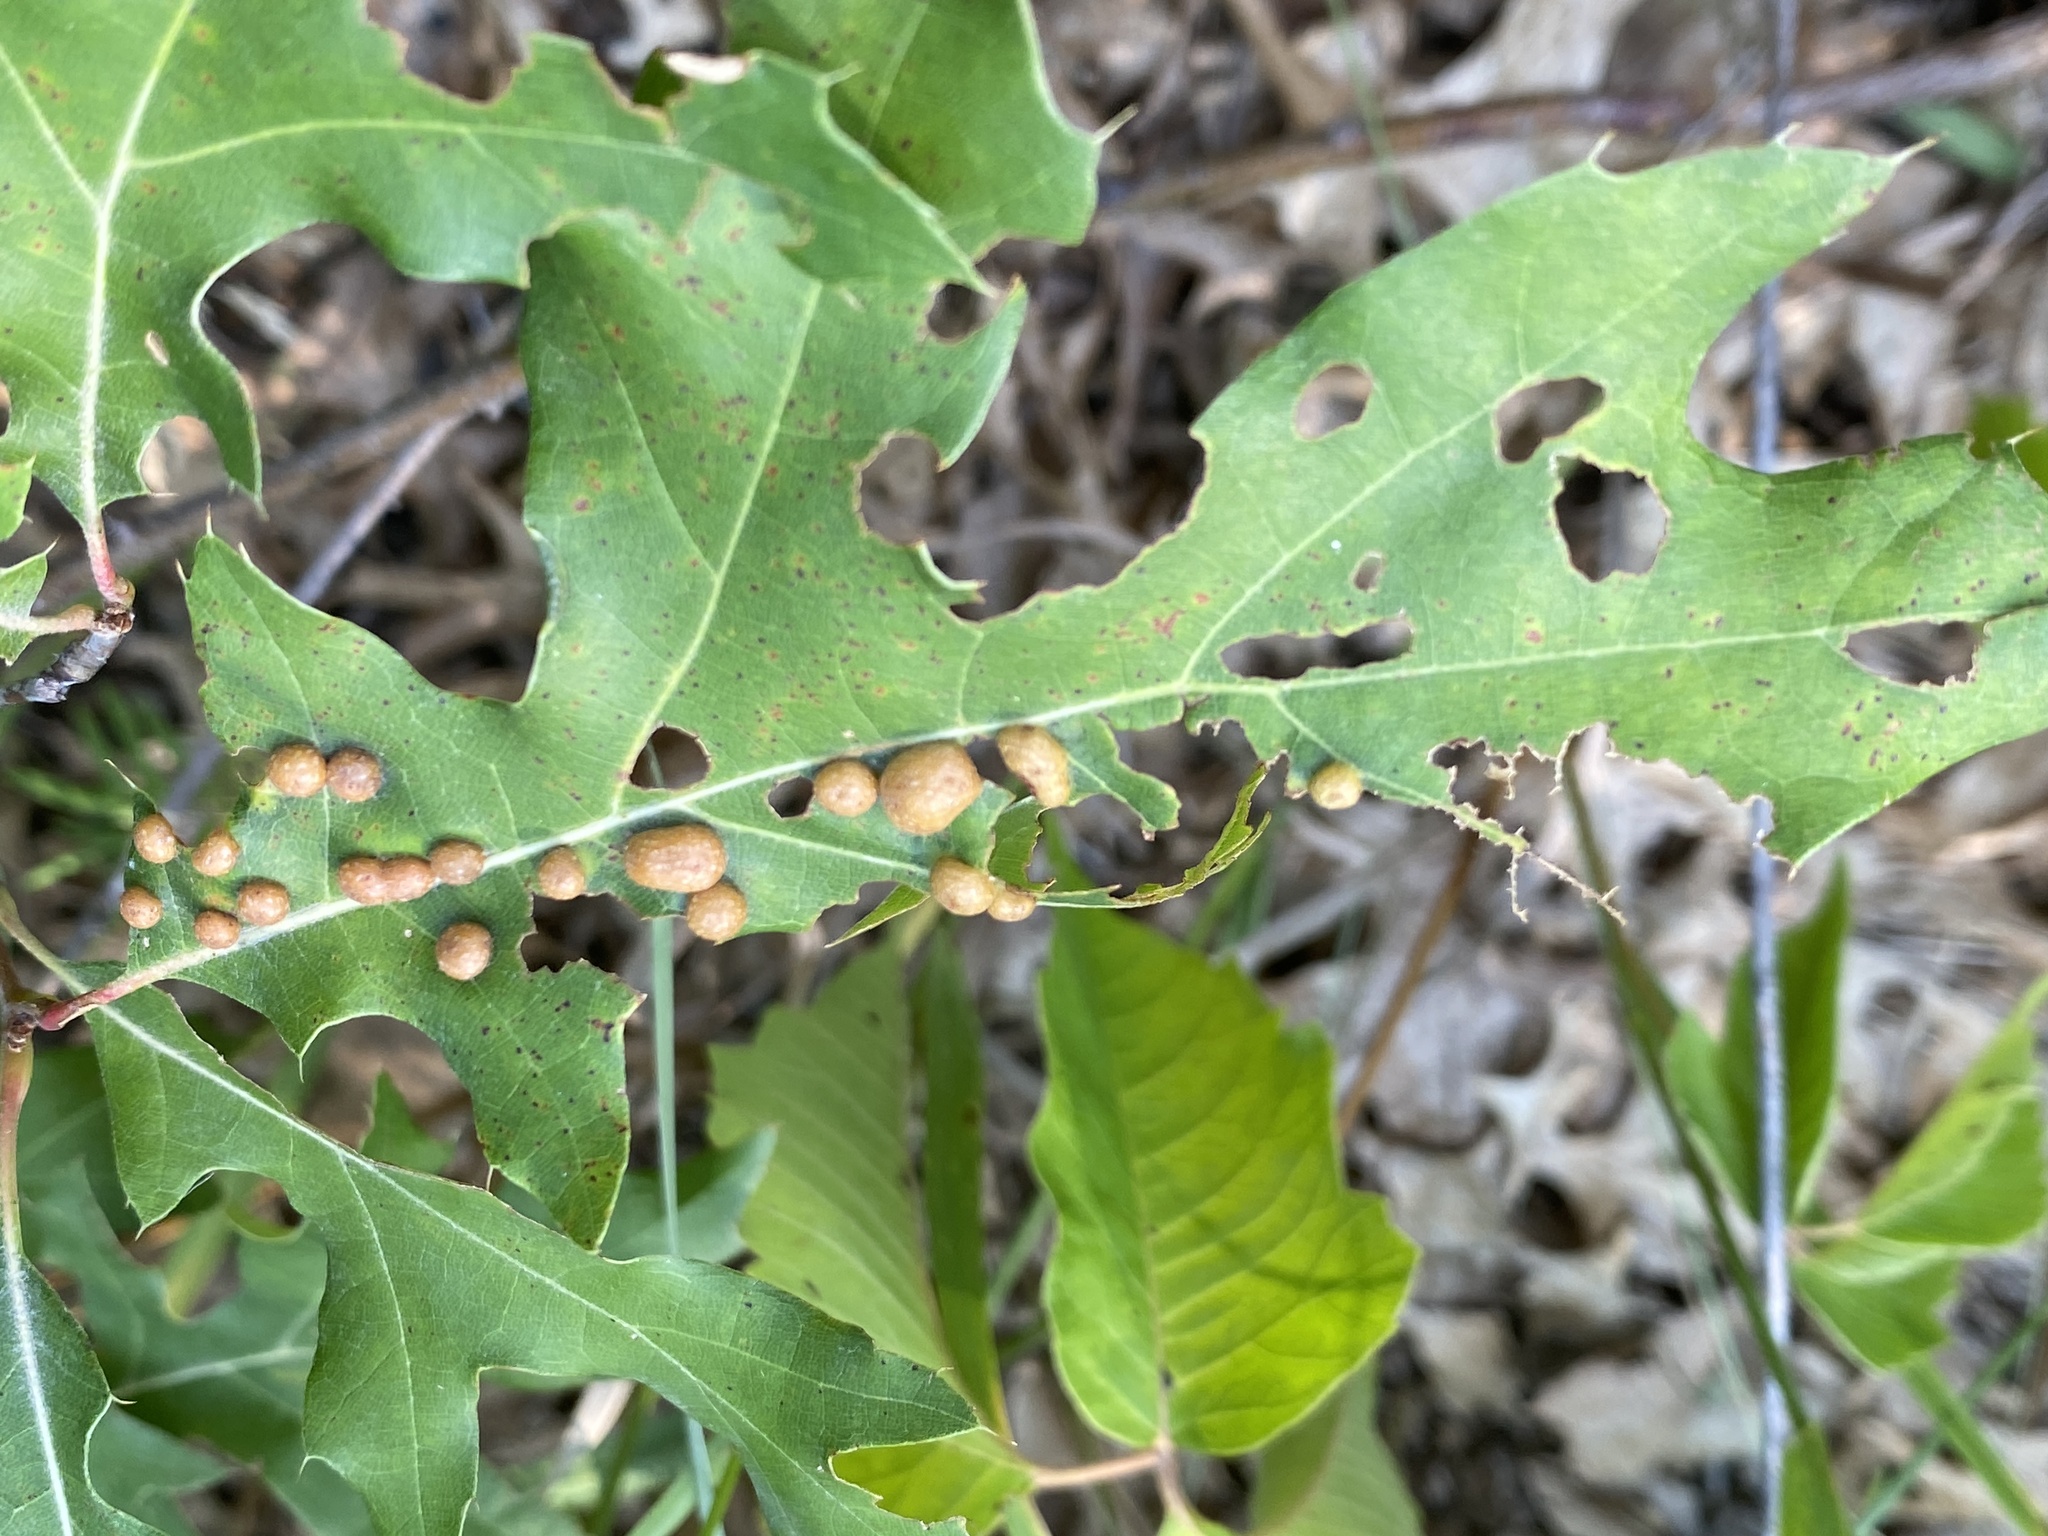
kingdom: Animalia
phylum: Arthropoda
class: Insecta
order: Diptera
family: Cecidomyiidae
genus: Polystepha
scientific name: Polystepha pilulae
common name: Oak leaf gall midge
